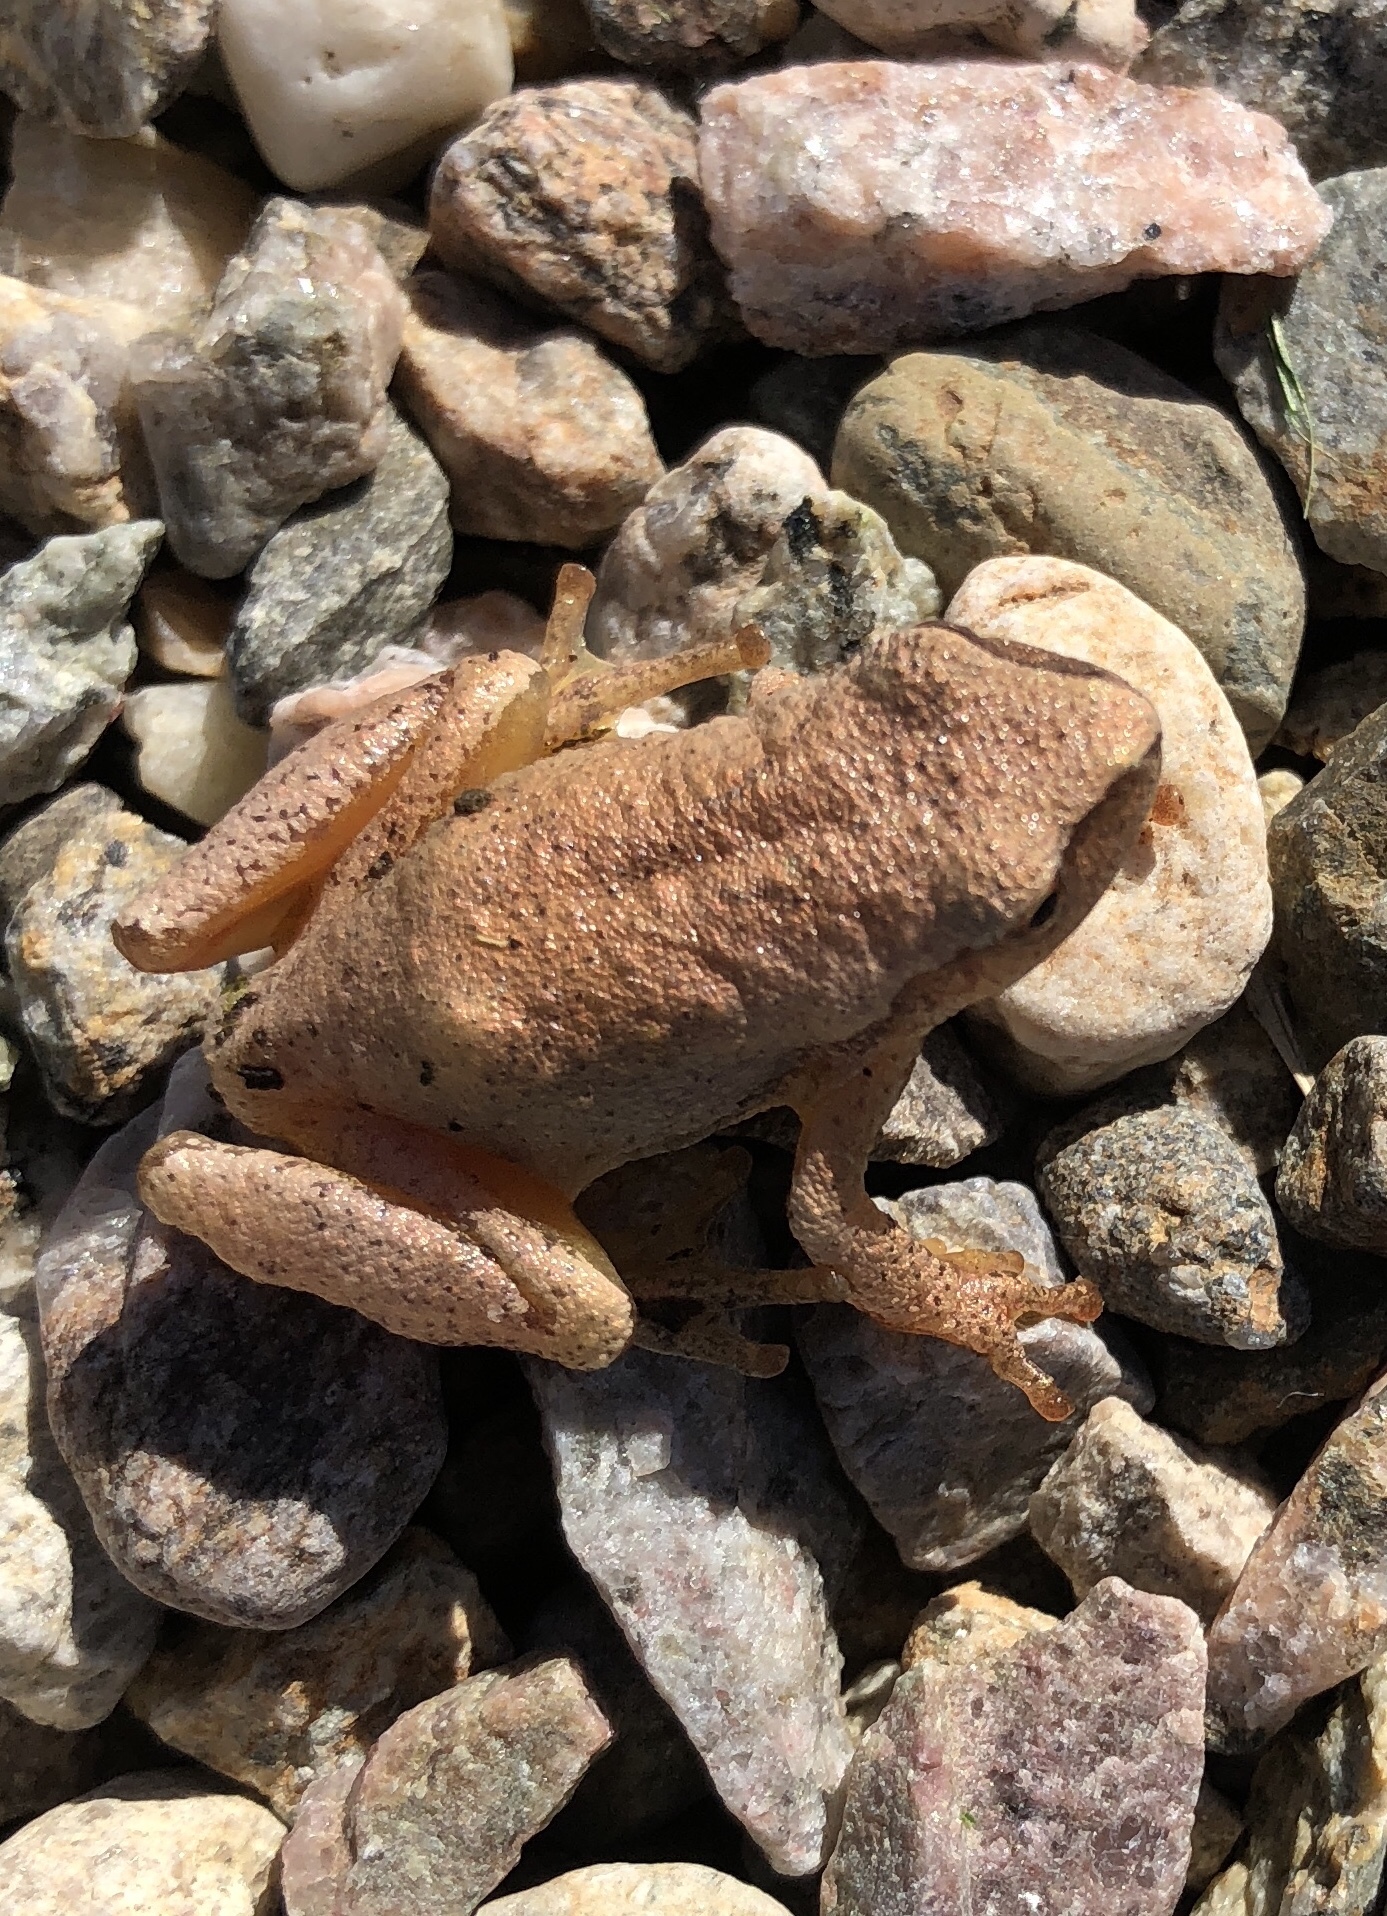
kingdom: Animalia
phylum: Chordata
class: Amphibia
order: Anura
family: Hylidae
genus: Pseudacris
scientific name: Pseudacris crucifer
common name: Spring peeper
